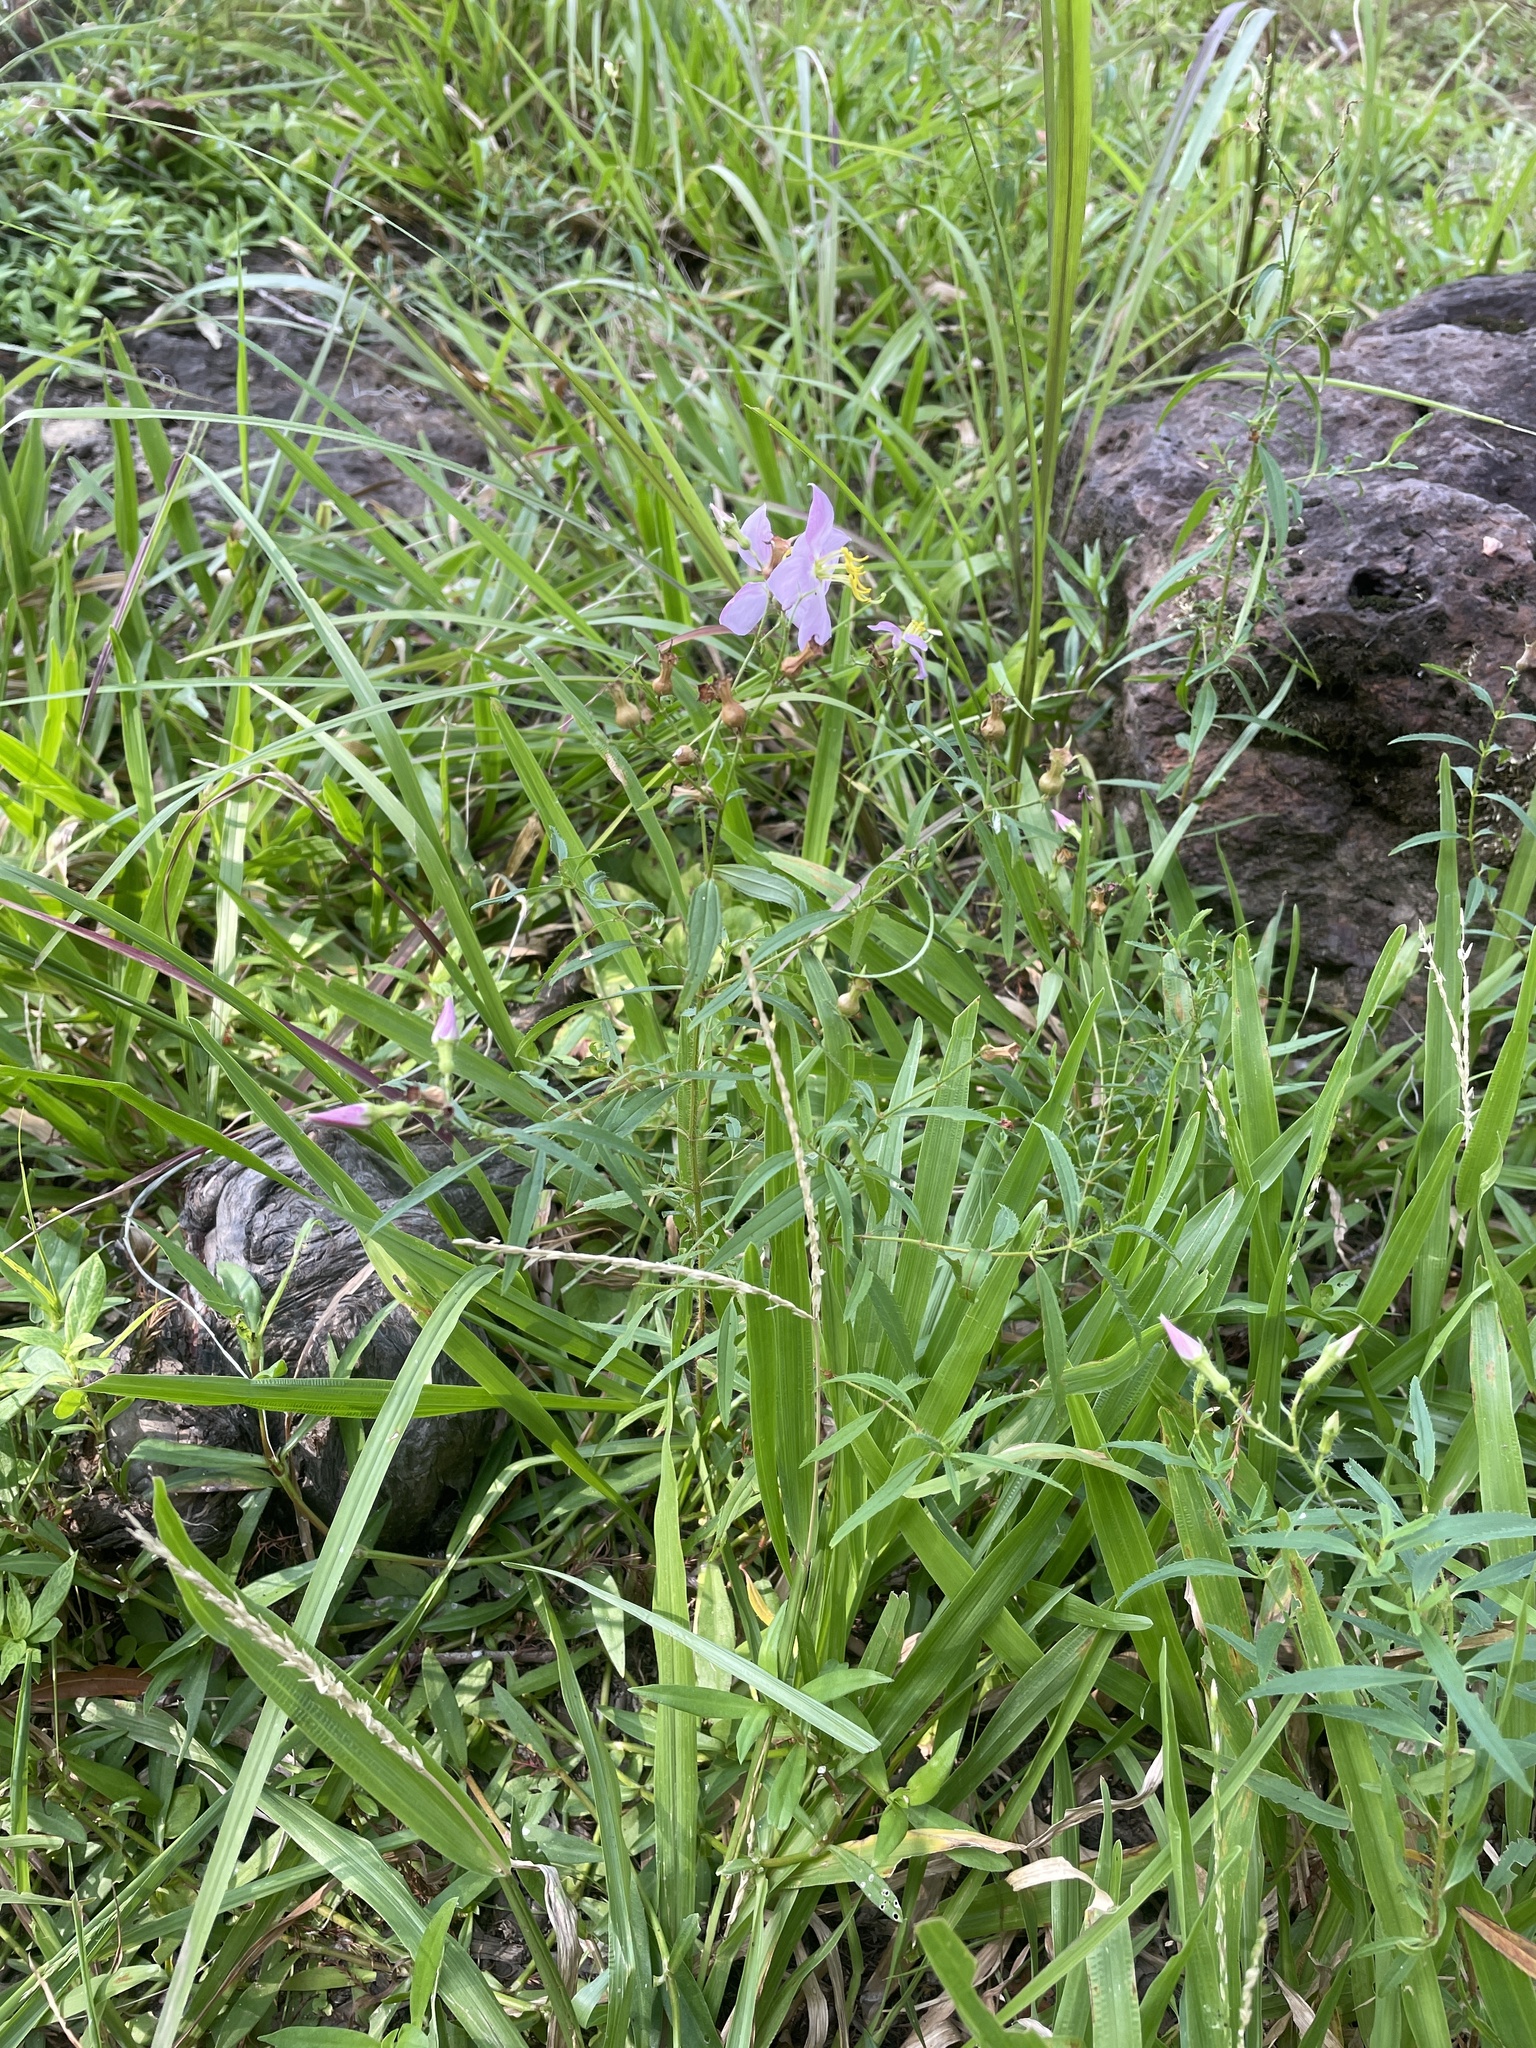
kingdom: Plantae
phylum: Tracheophyta
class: Magnoliopsida
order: Myrtales
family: Melastomataceae
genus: Rhexia
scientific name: Rhexia mariana
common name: Dull meadow-pitcher
